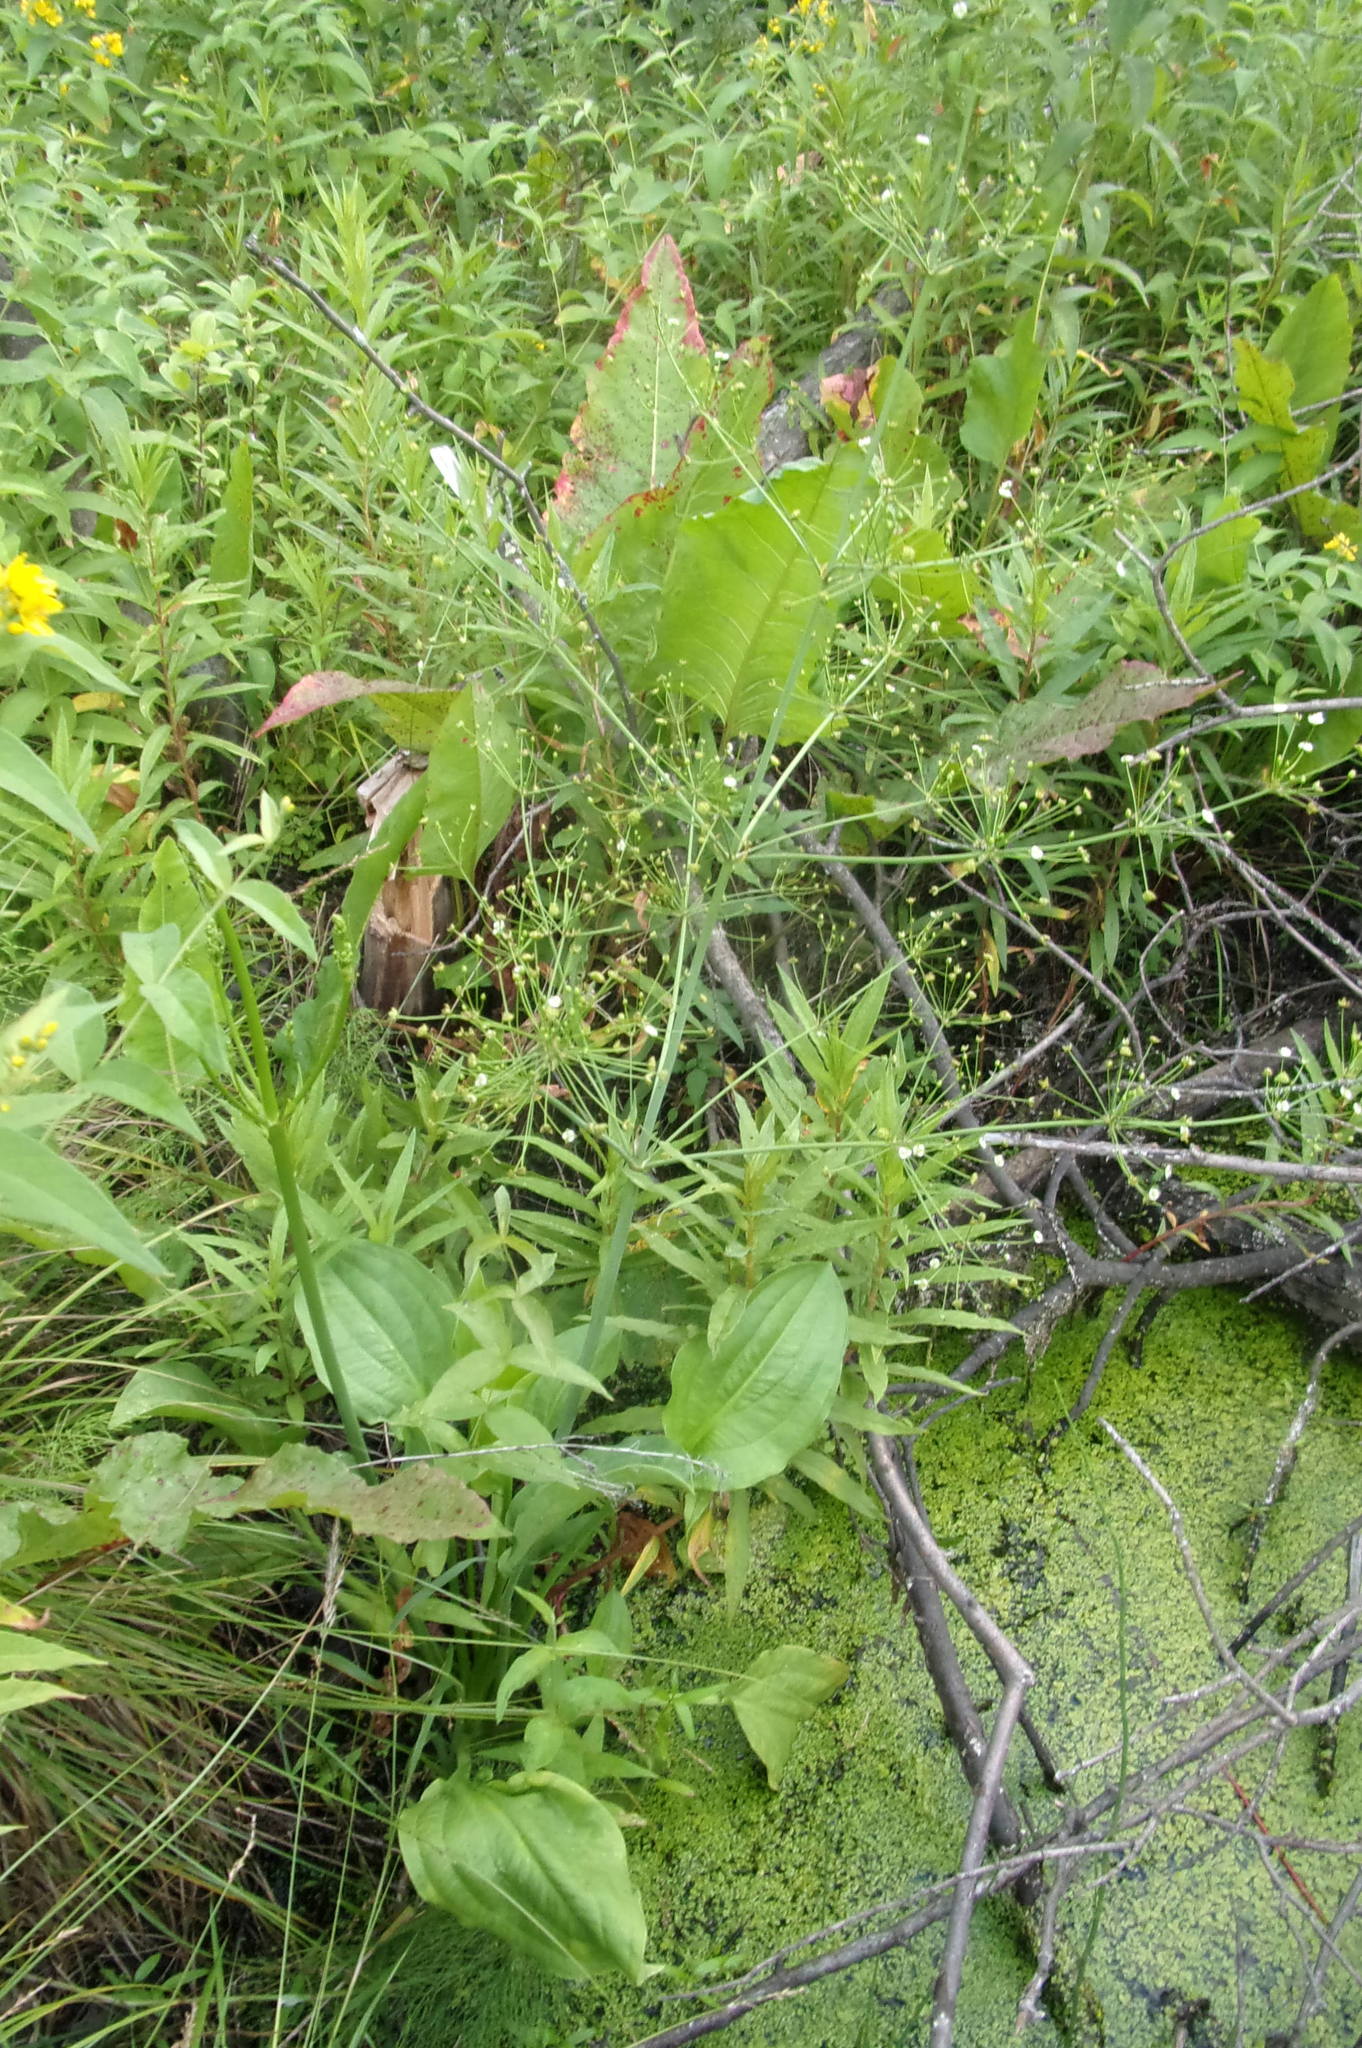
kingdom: Plantae
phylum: Tracheophyta
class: Liliopsida
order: Alismatales
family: Alismataceae
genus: Alisma
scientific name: Alisma plantago-aquatica
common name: Water-plantain
